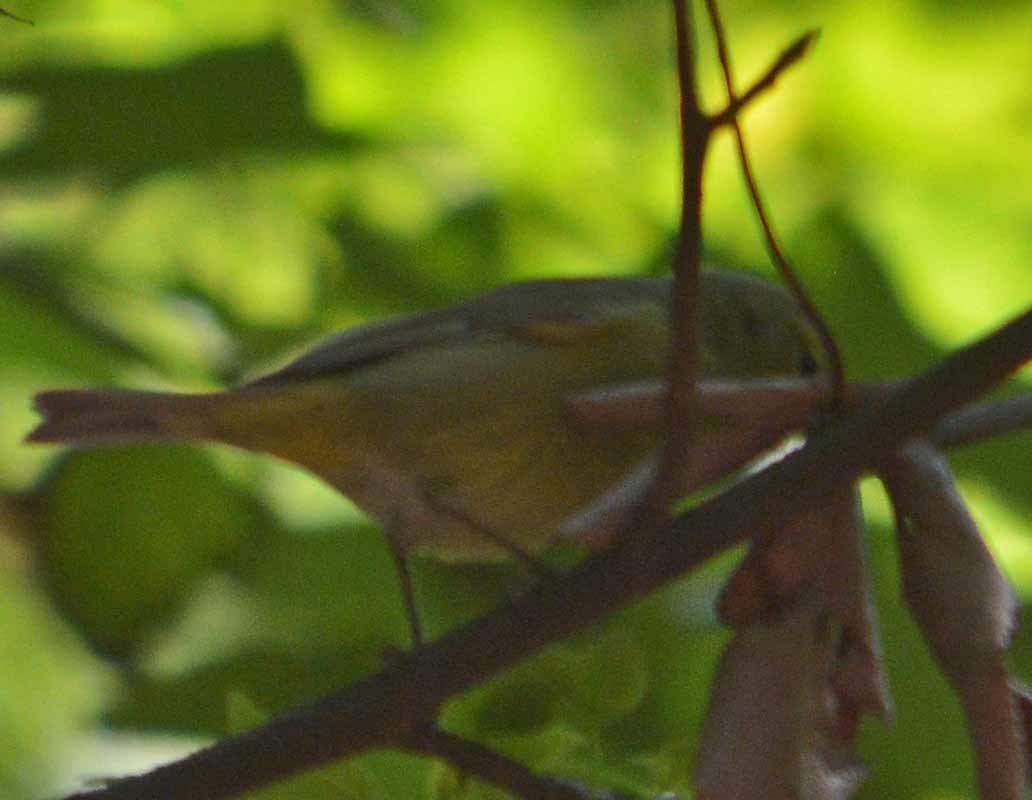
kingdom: Animalia
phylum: Chordata
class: Aves
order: Passeriformes
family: Parulidae
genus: Leiothlypis
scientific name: Leiothlypis ruficapilla
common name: Nashville warbler
